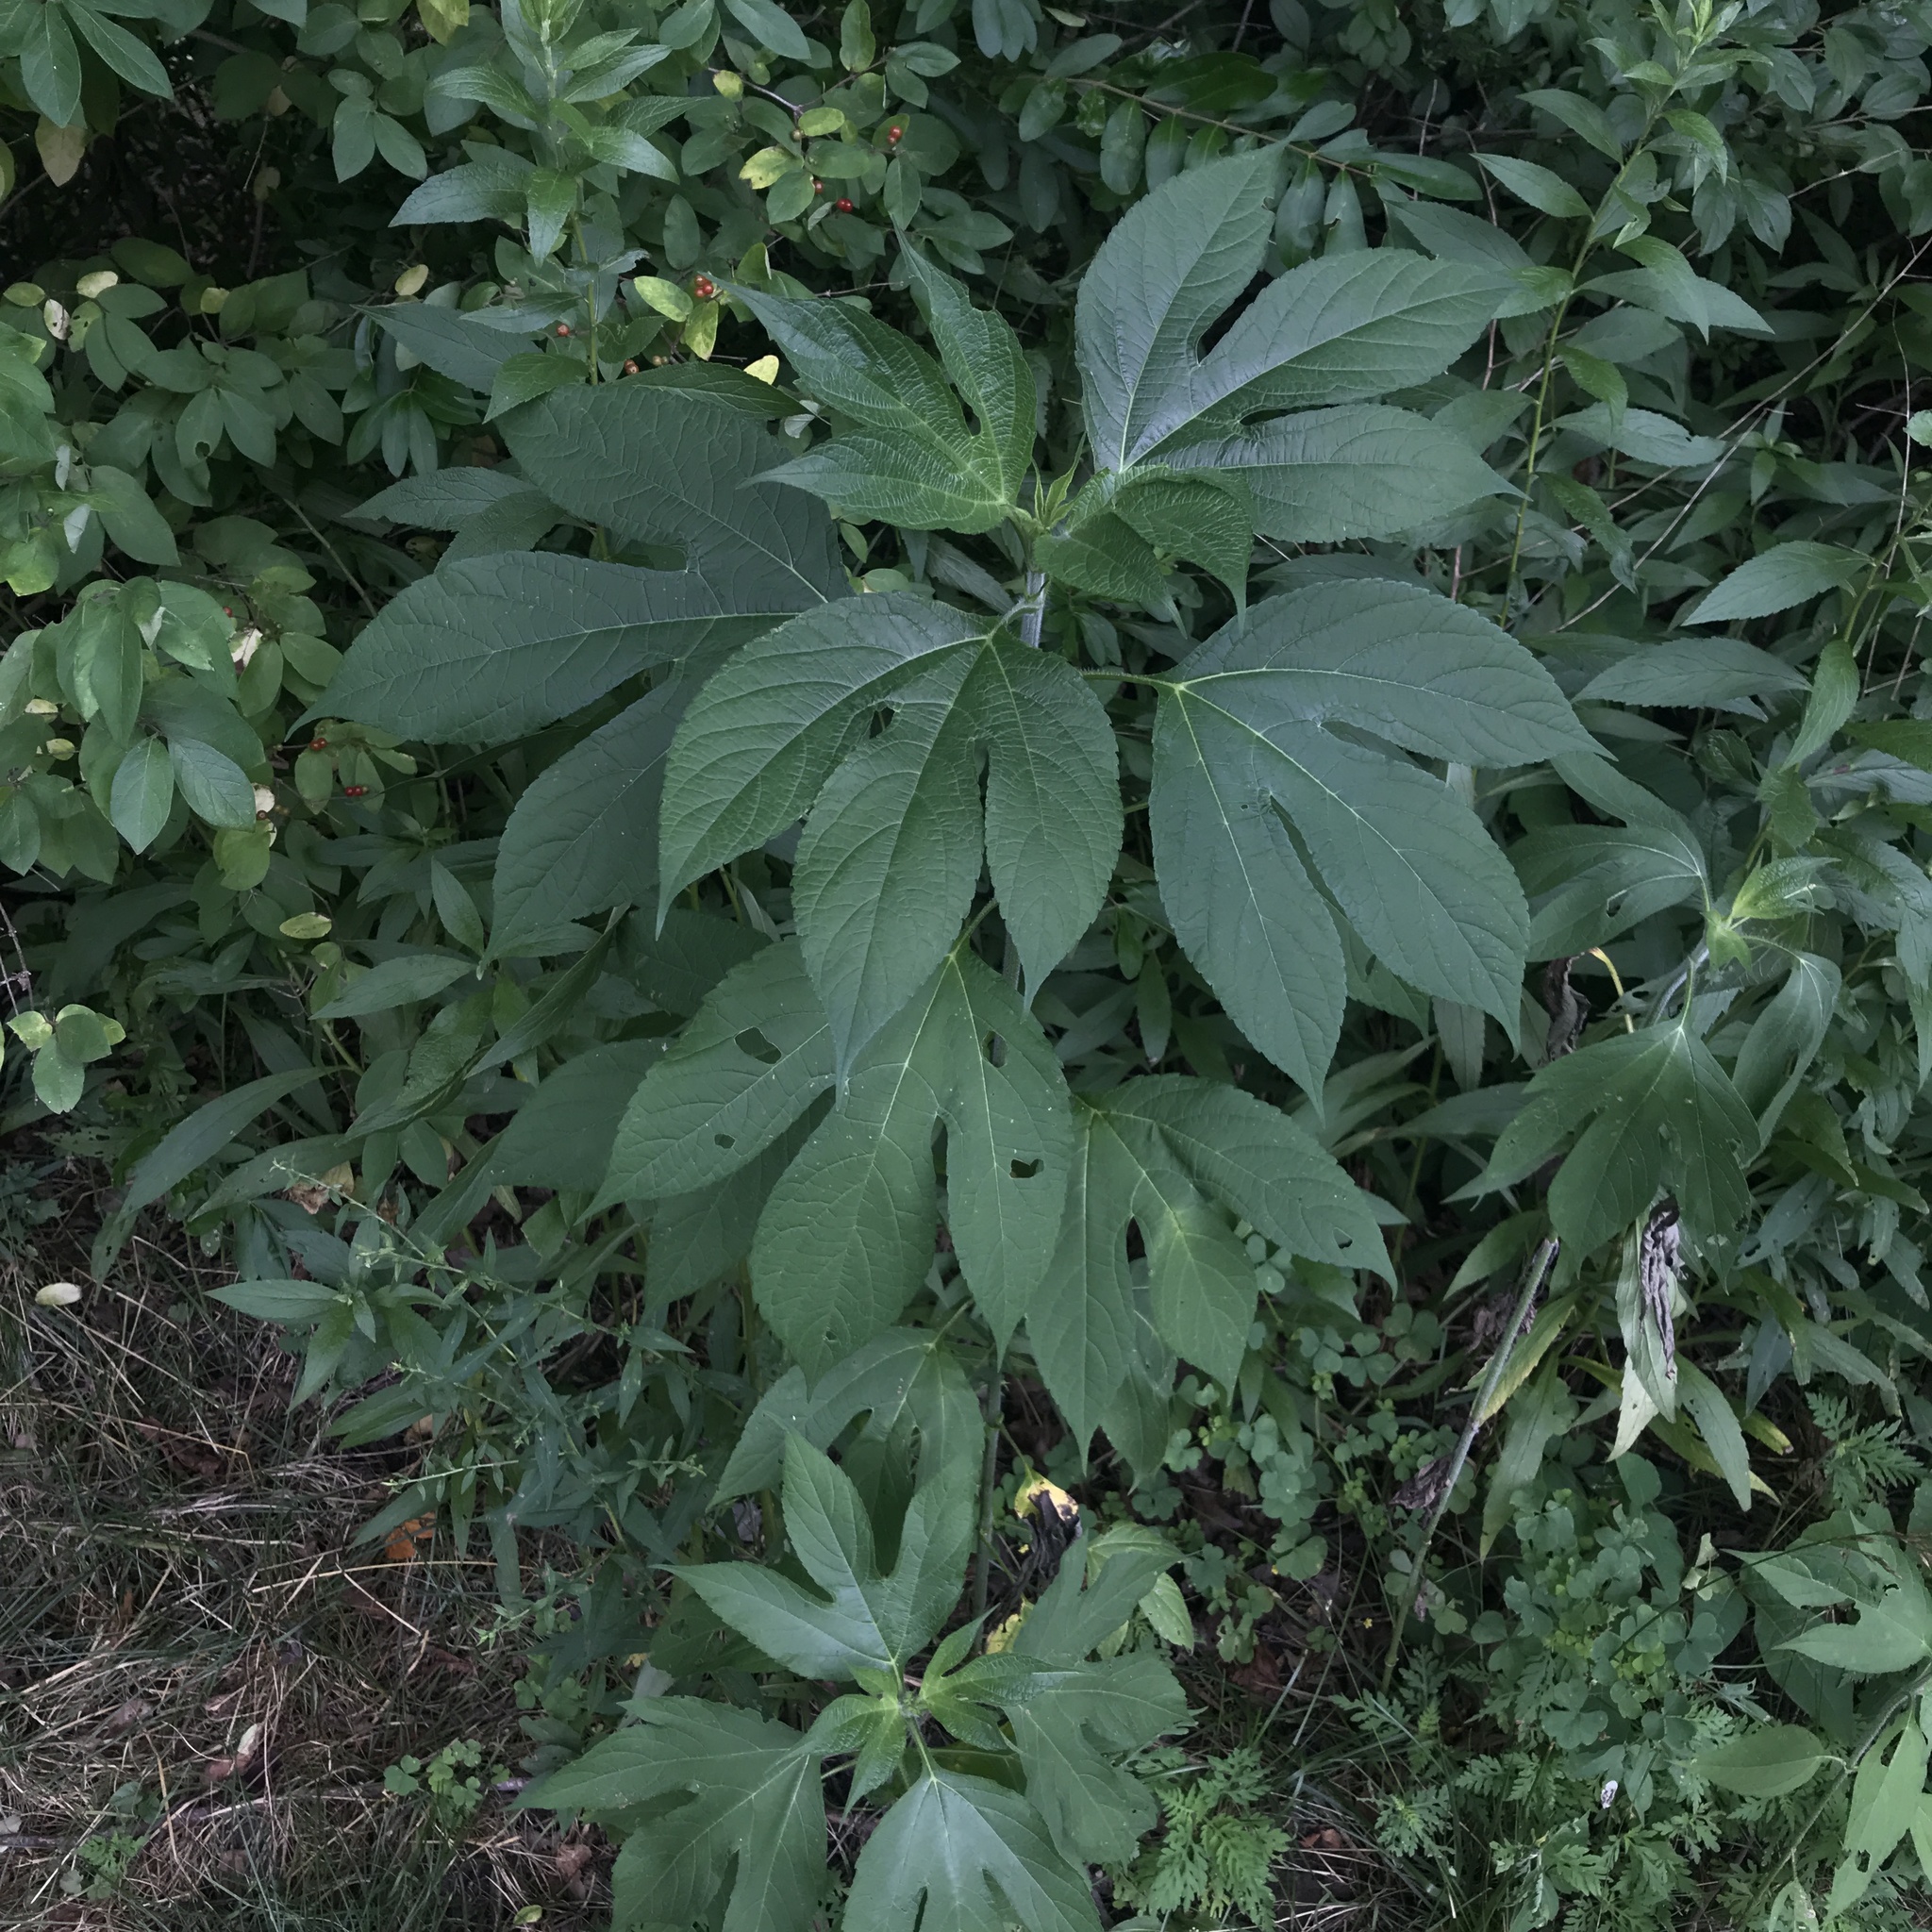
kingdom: Plantae
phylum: Tracheophyta
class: Magnoliopsida
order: Asterales
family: Asteraceae
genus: Ambrosia
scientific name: Ambrosia trifida
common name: Giant ragweed
